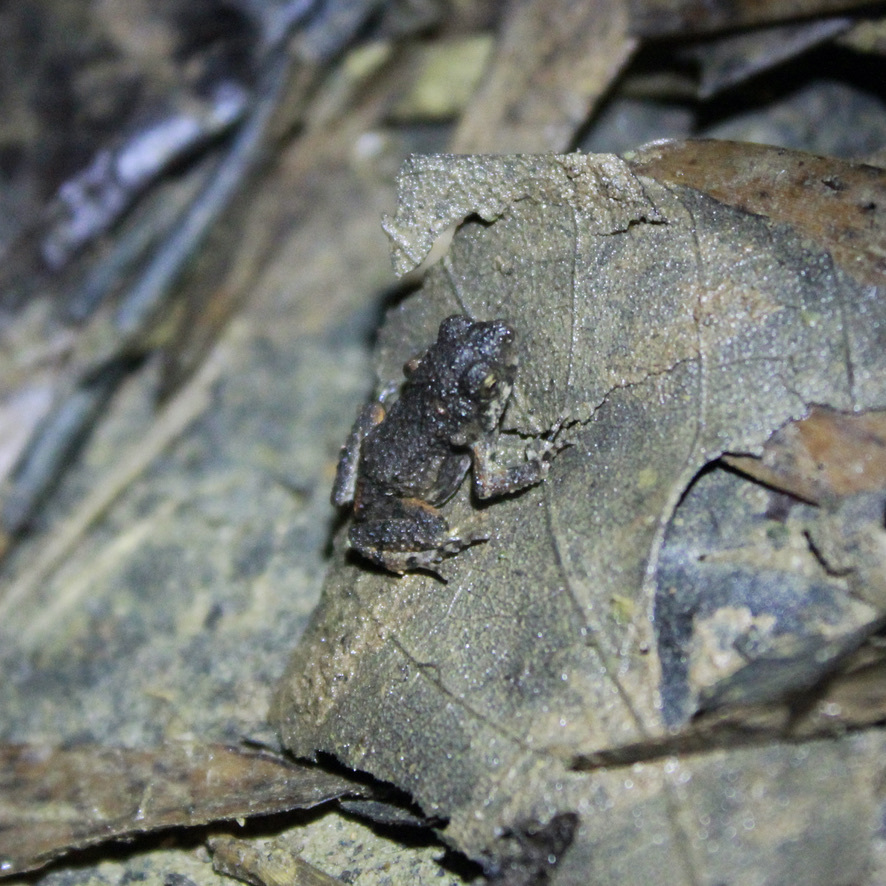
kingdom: Animalia
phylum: Chordata
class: Amphibia
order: Anura
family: Leptodactylidae
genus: Engystomops
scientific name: Engystomops pustulosus
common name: Tungara frog
